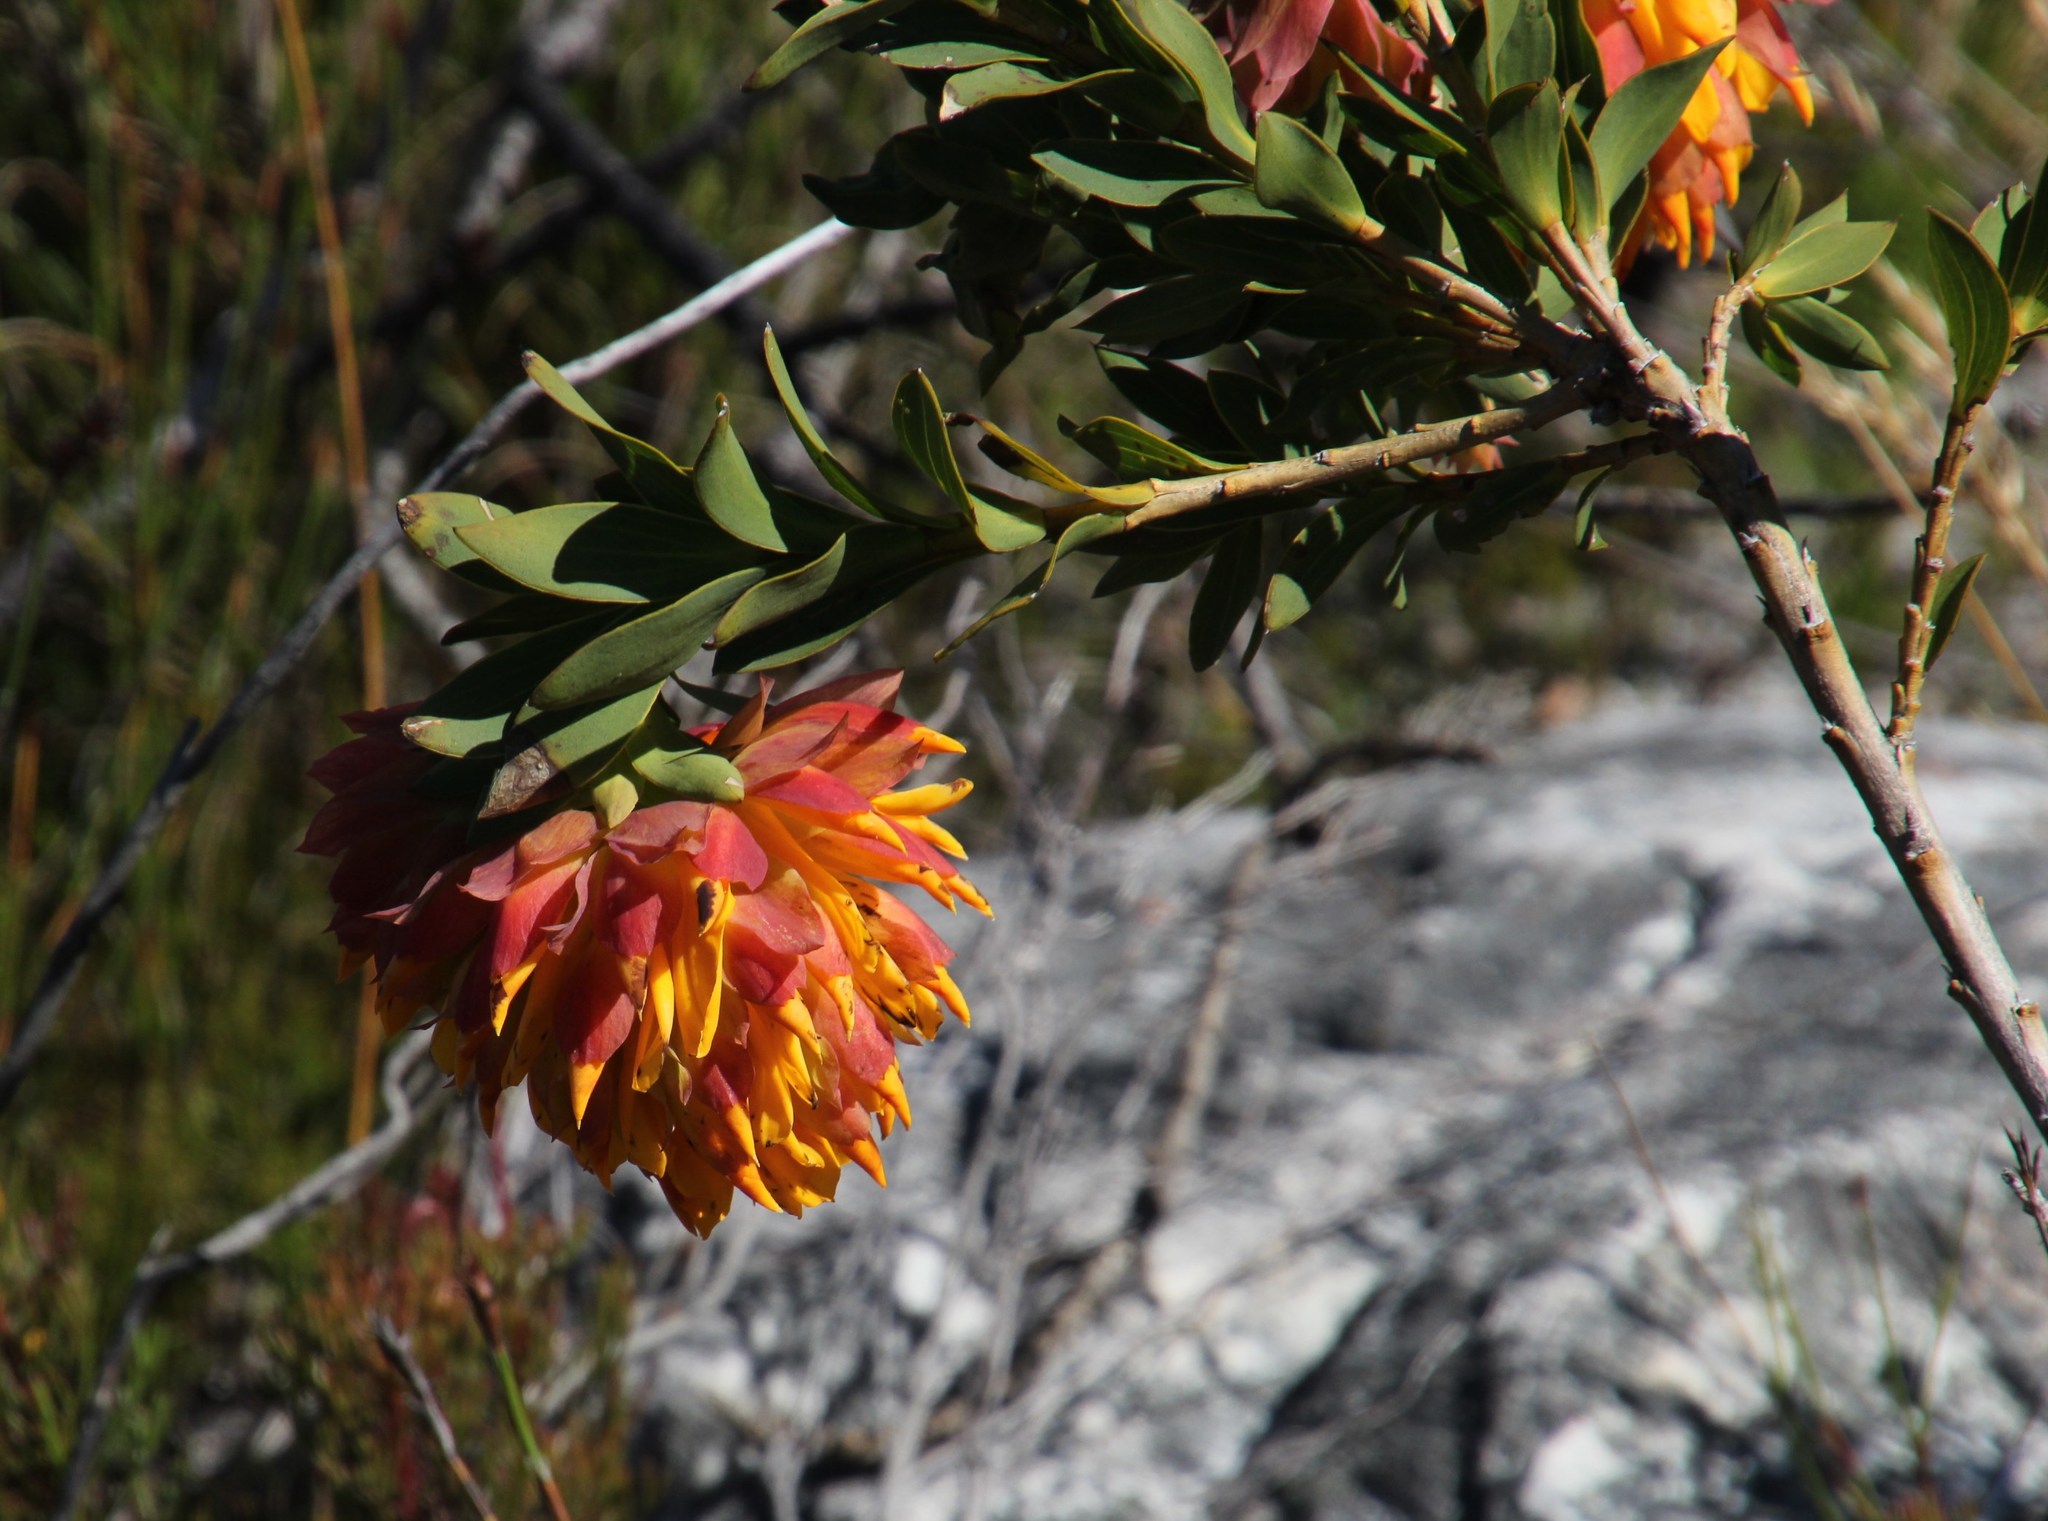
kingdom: Plantae
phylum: Tracheophyta
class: Magnoliopsida
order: Fabales
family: Fabaceae
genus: Liparia
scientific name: Liparia splendens
